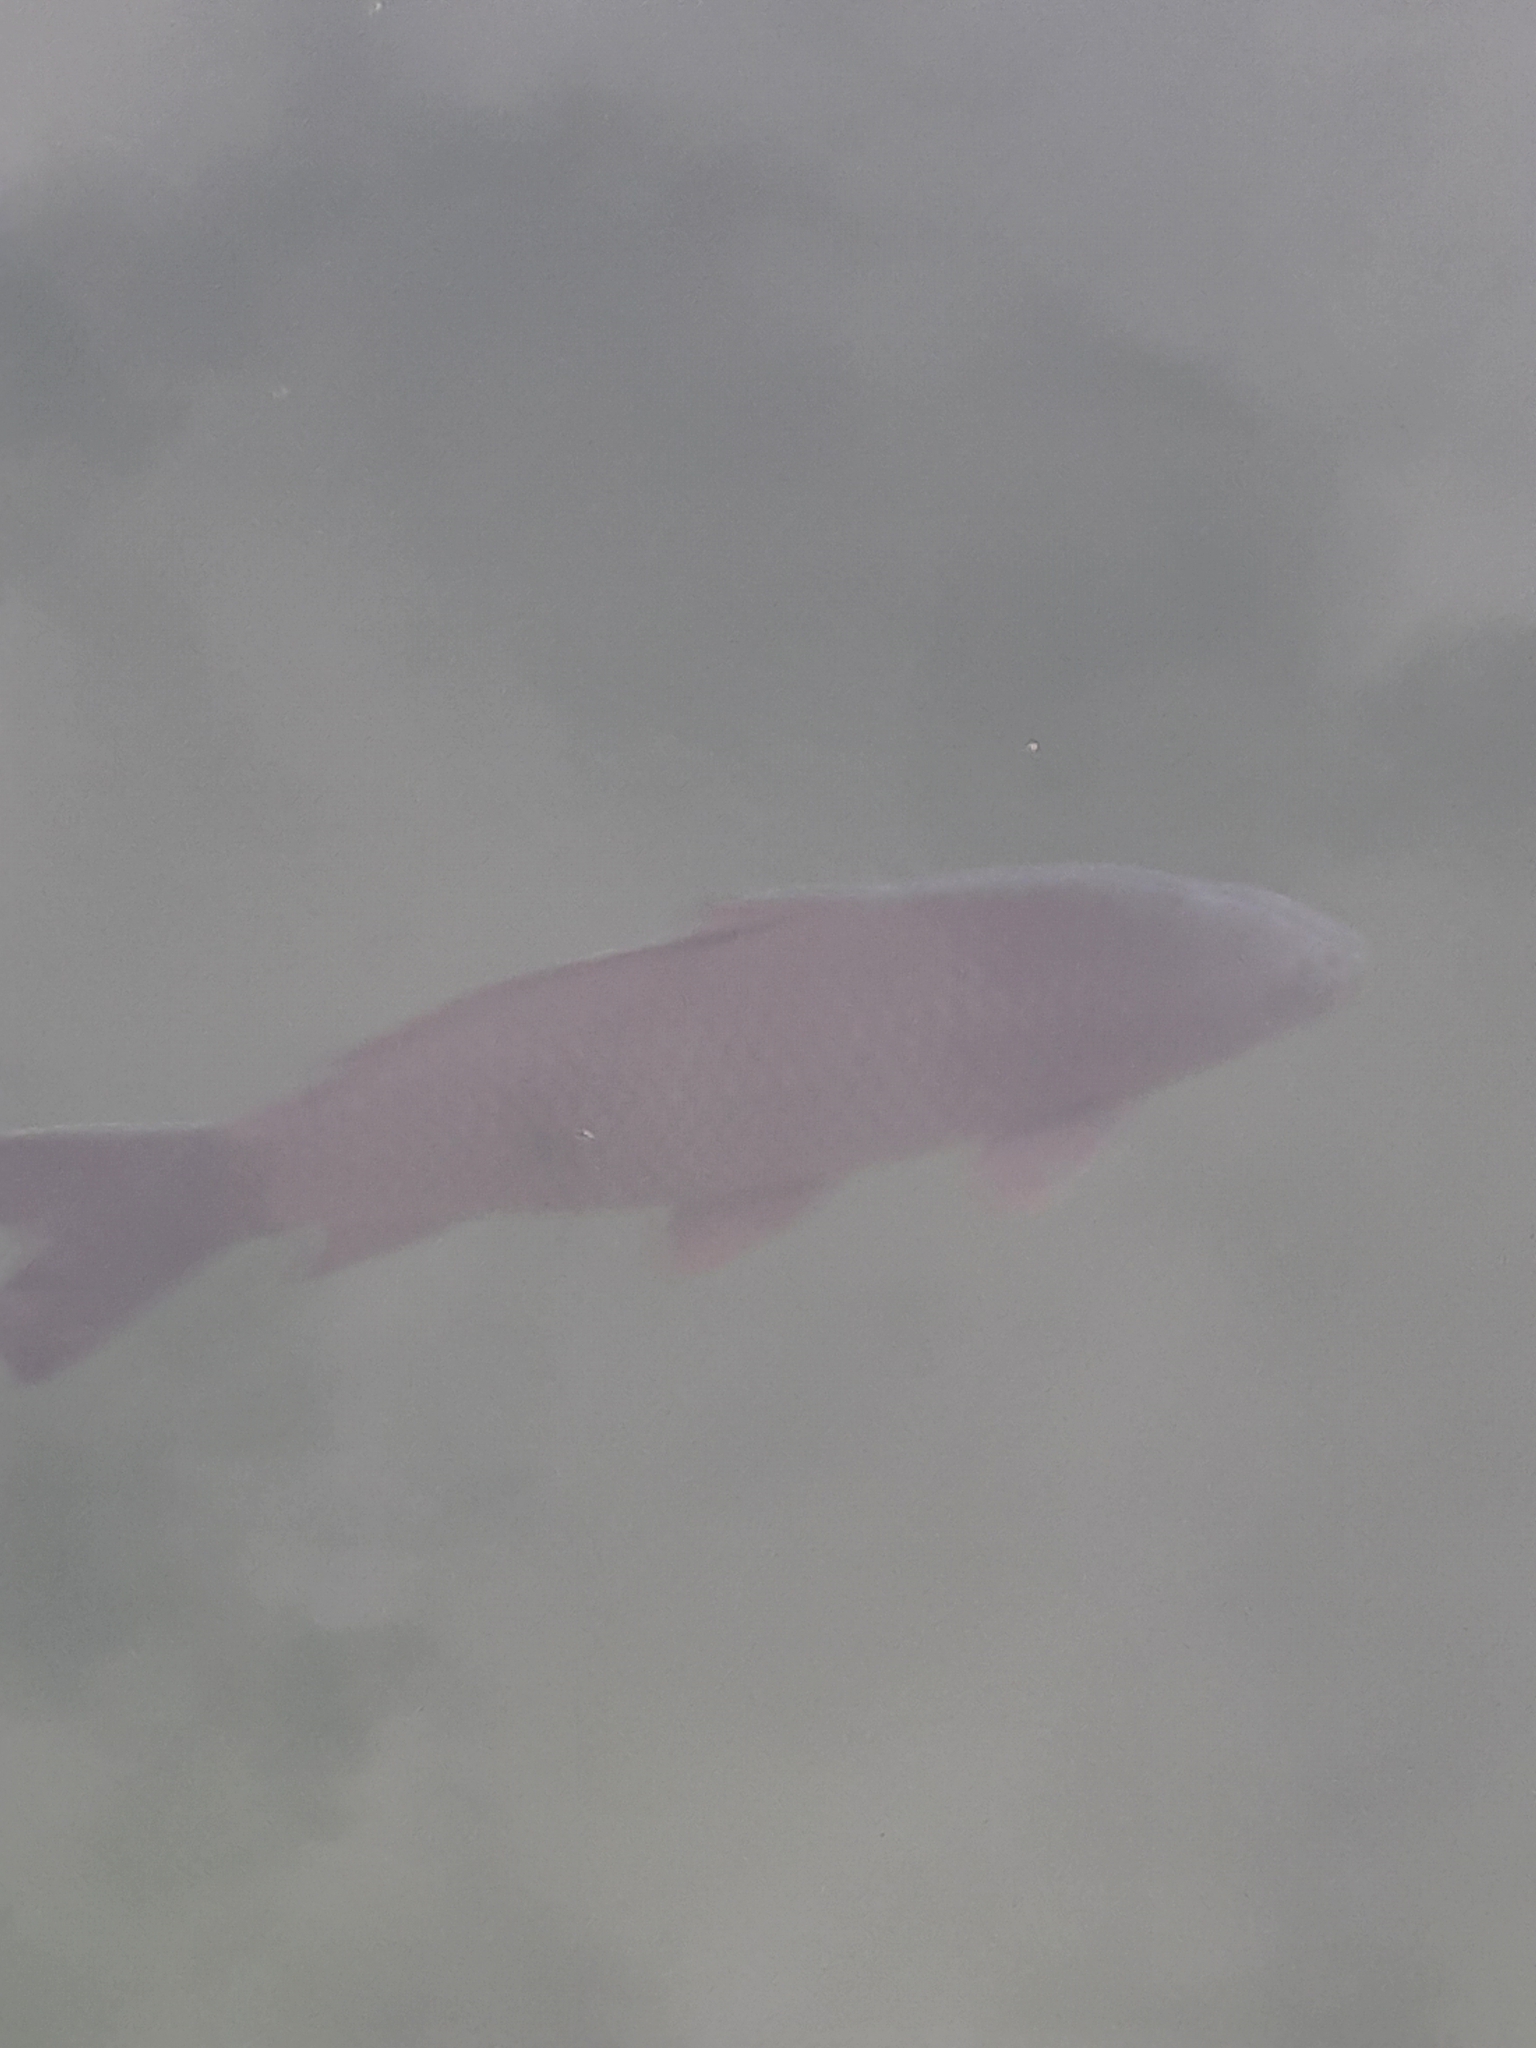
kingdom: Animalia
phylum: Chordata
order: Cypriniformes
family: Cyprinidae
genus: Cyprinus
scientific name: Cyprinus carpio
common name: Common carp
